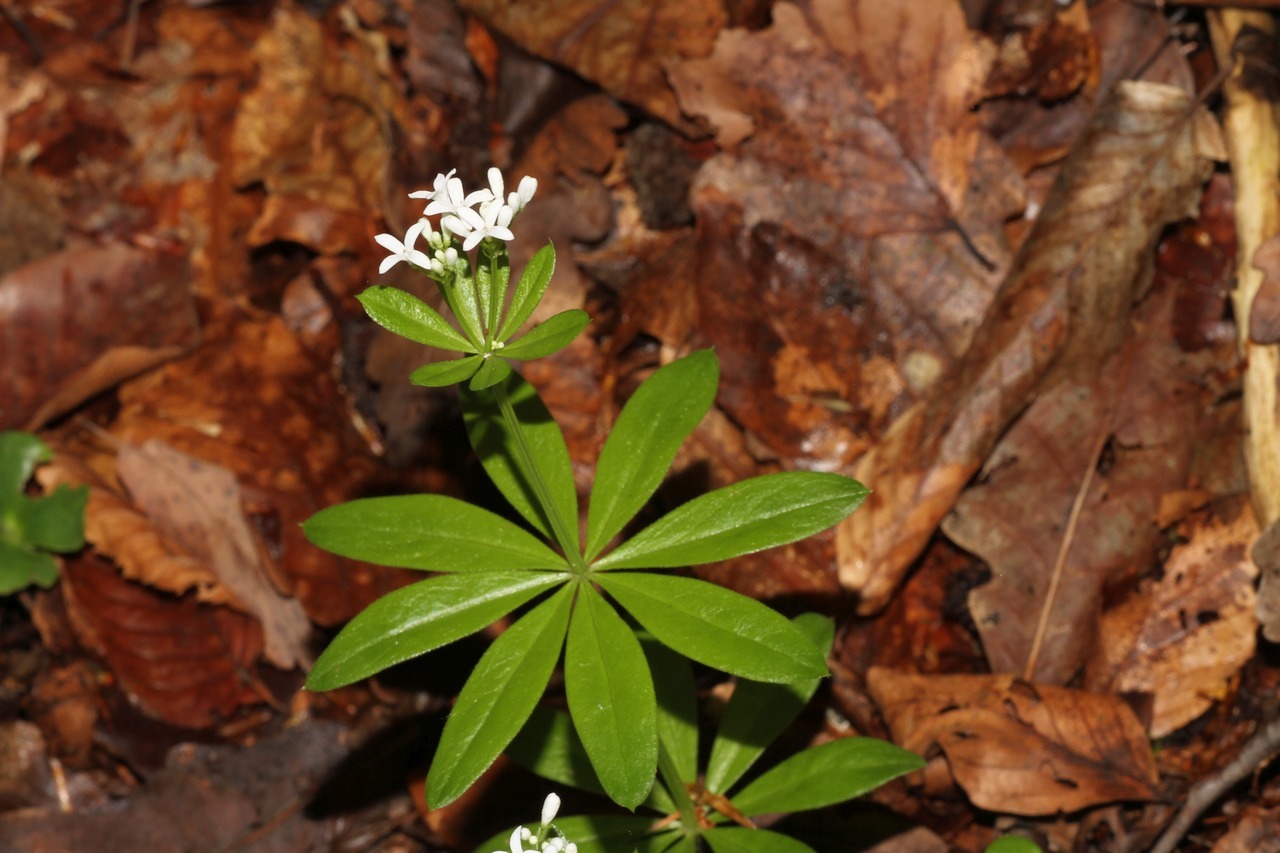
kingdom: Plantae
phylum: Tracheophyta
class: Magnoliopsida
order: Gentianales
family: Rubiaceae
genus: Galium
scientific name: Galium odoratum
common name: Sweet woodruff
